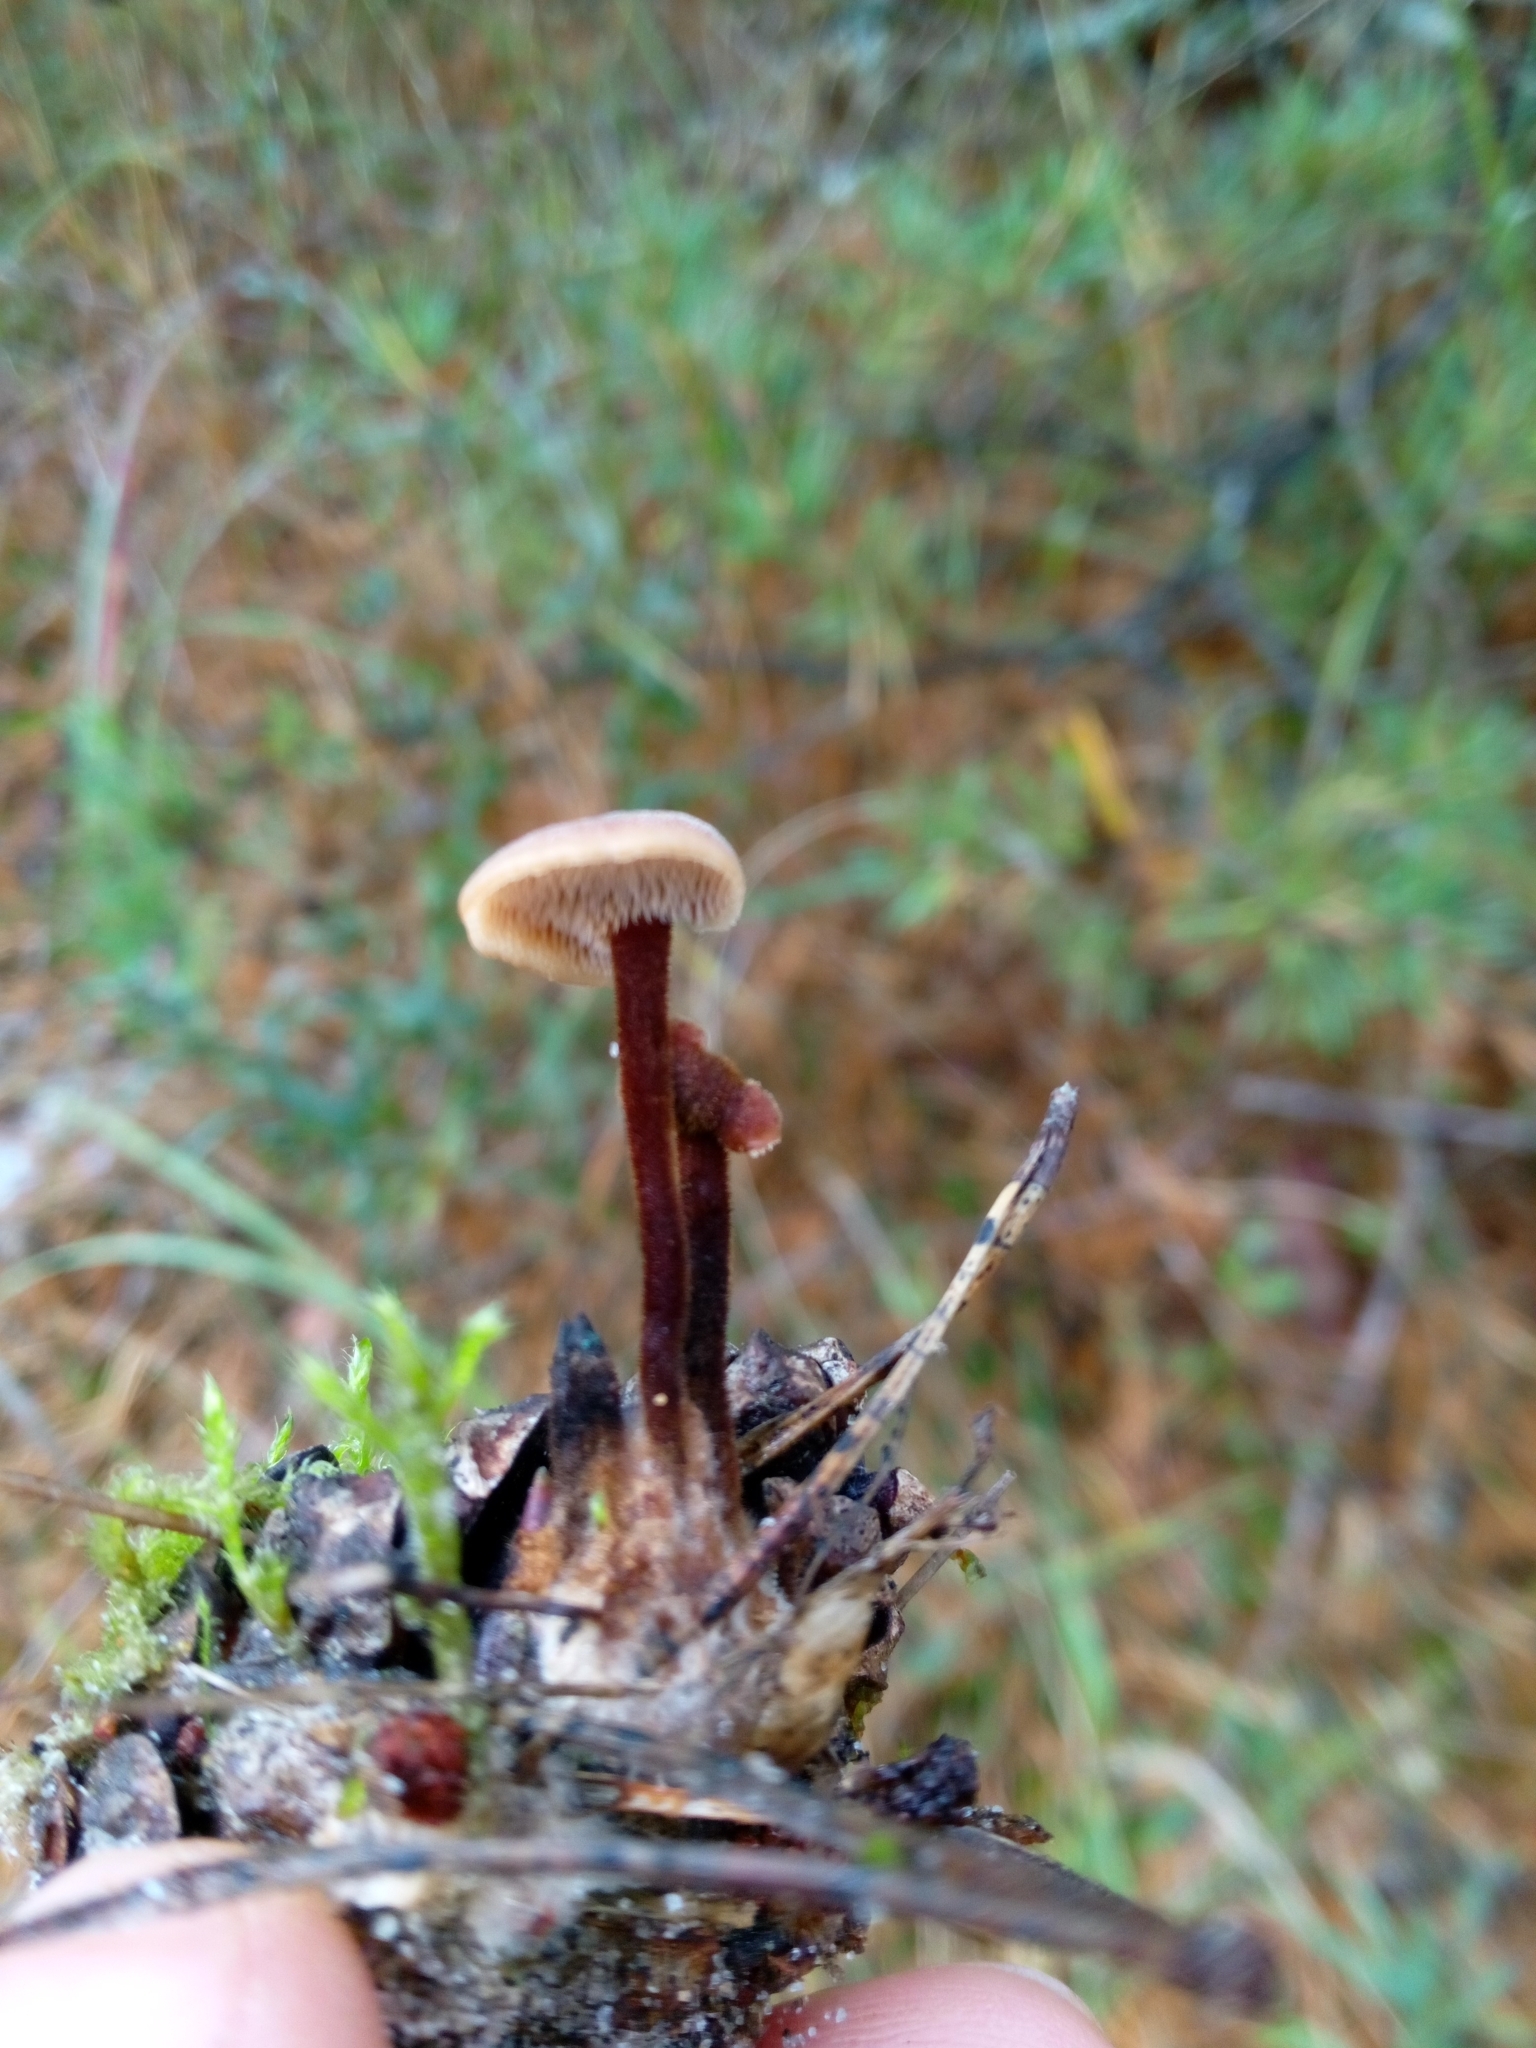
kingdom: Fungi
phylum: Basidiomycota
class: Agaricomycetes
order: Russulales
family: Auriscalpiaceae
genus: Auriscalpium
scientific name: Auriscalpium vulgare
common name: Earpick fungus
